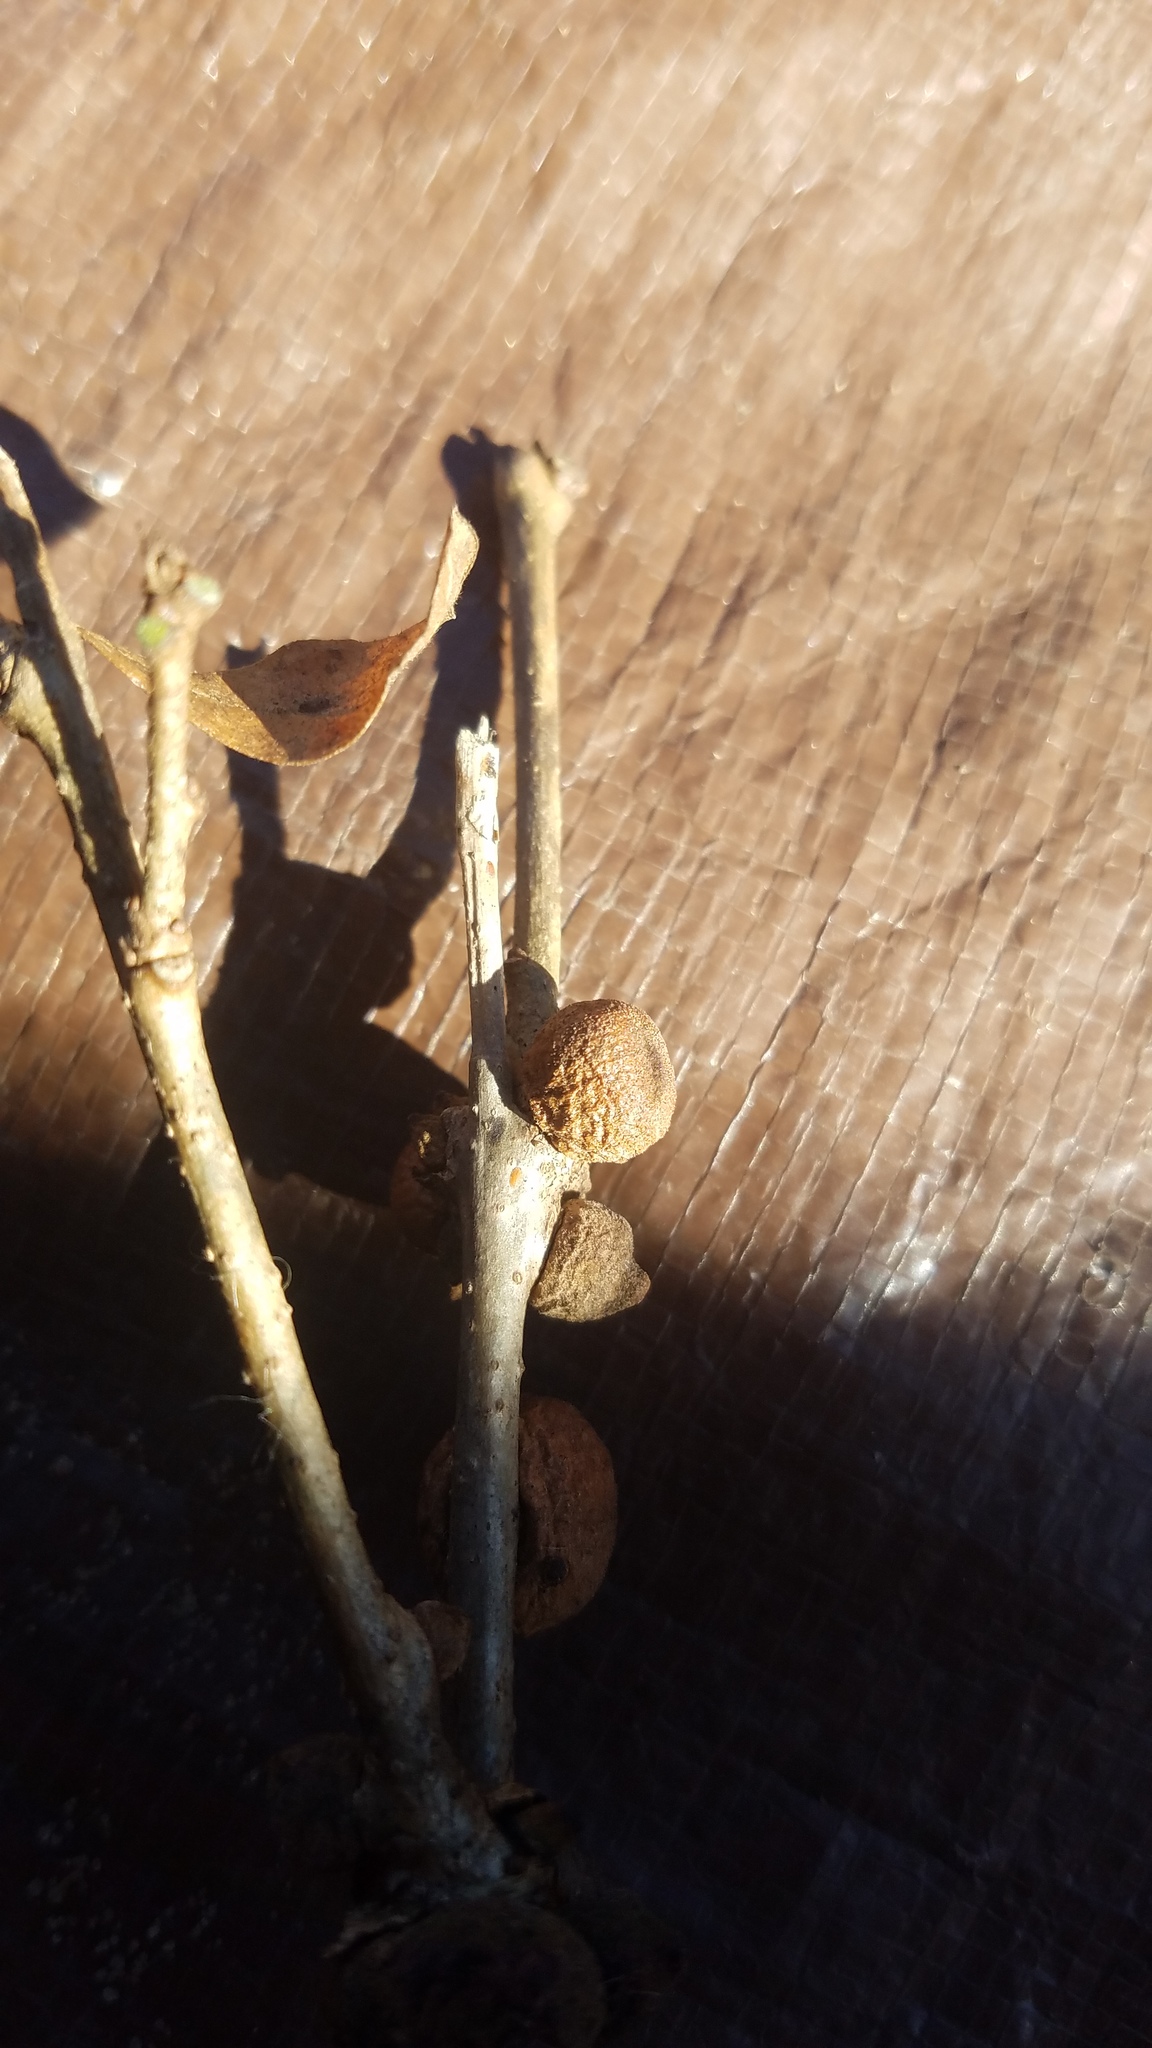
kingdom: Animalia
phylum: Arthropoda
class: Insecta
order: Hymenoptera
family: Cynipidae
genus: Disholcaspis
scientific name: Disholcaspis
